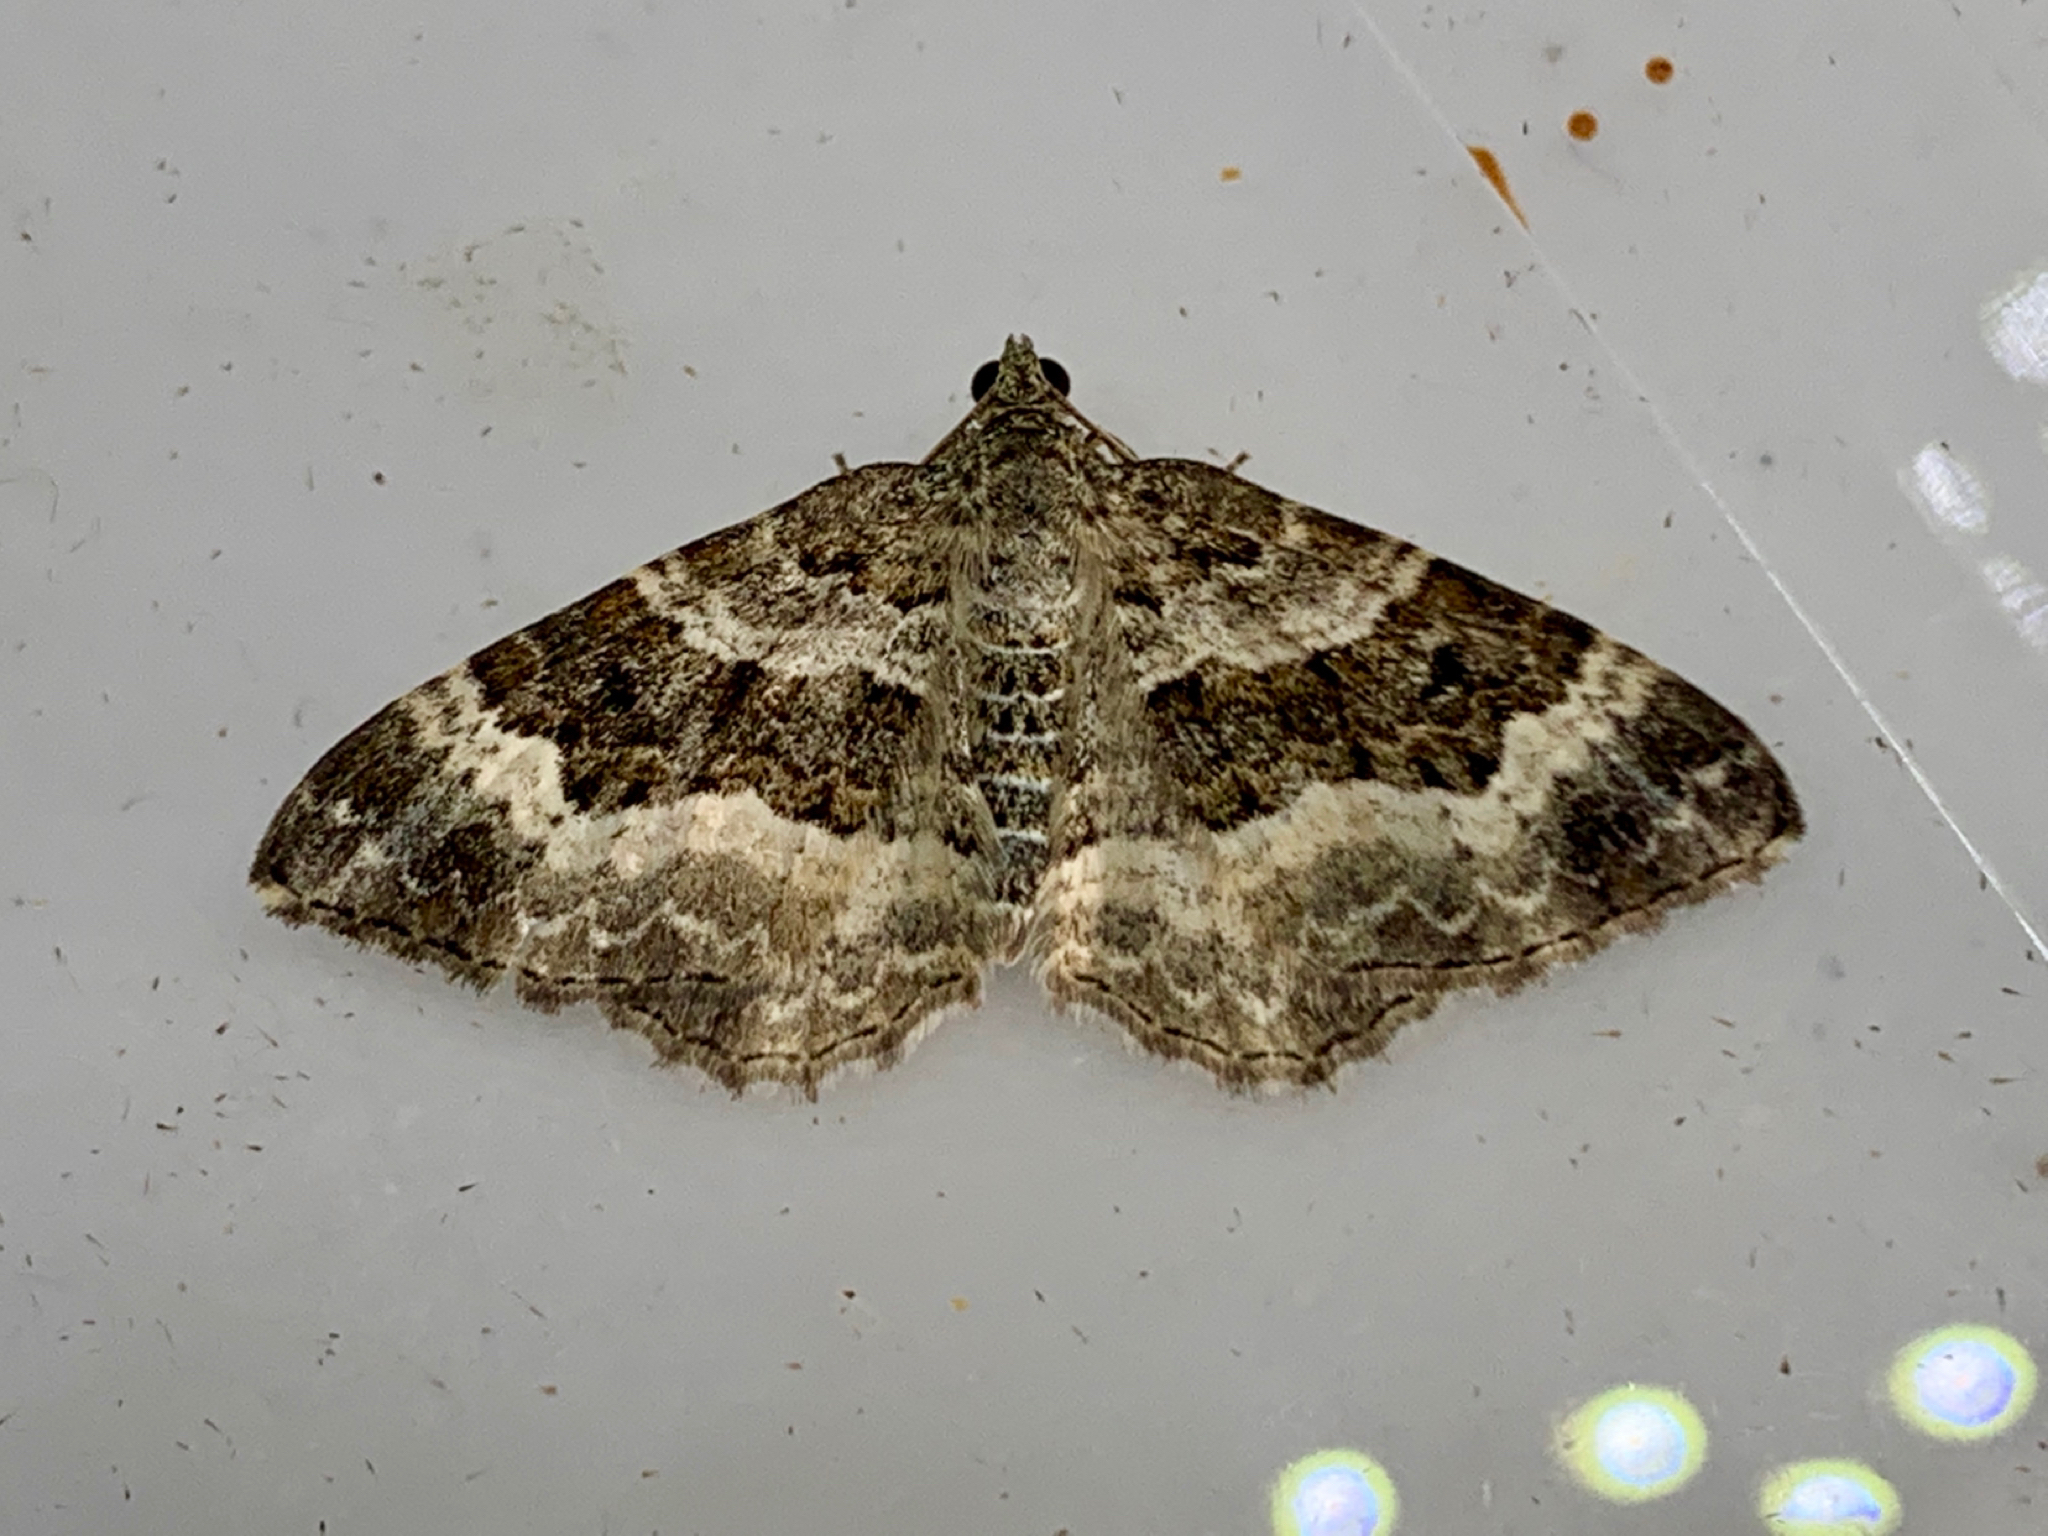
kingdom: Animalia
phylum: Arthropoda
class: Insecta
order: Lepidoptera
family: Geometridae
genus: Epirrhoe
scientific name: Epirrhoe alternata
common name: Common carpet
